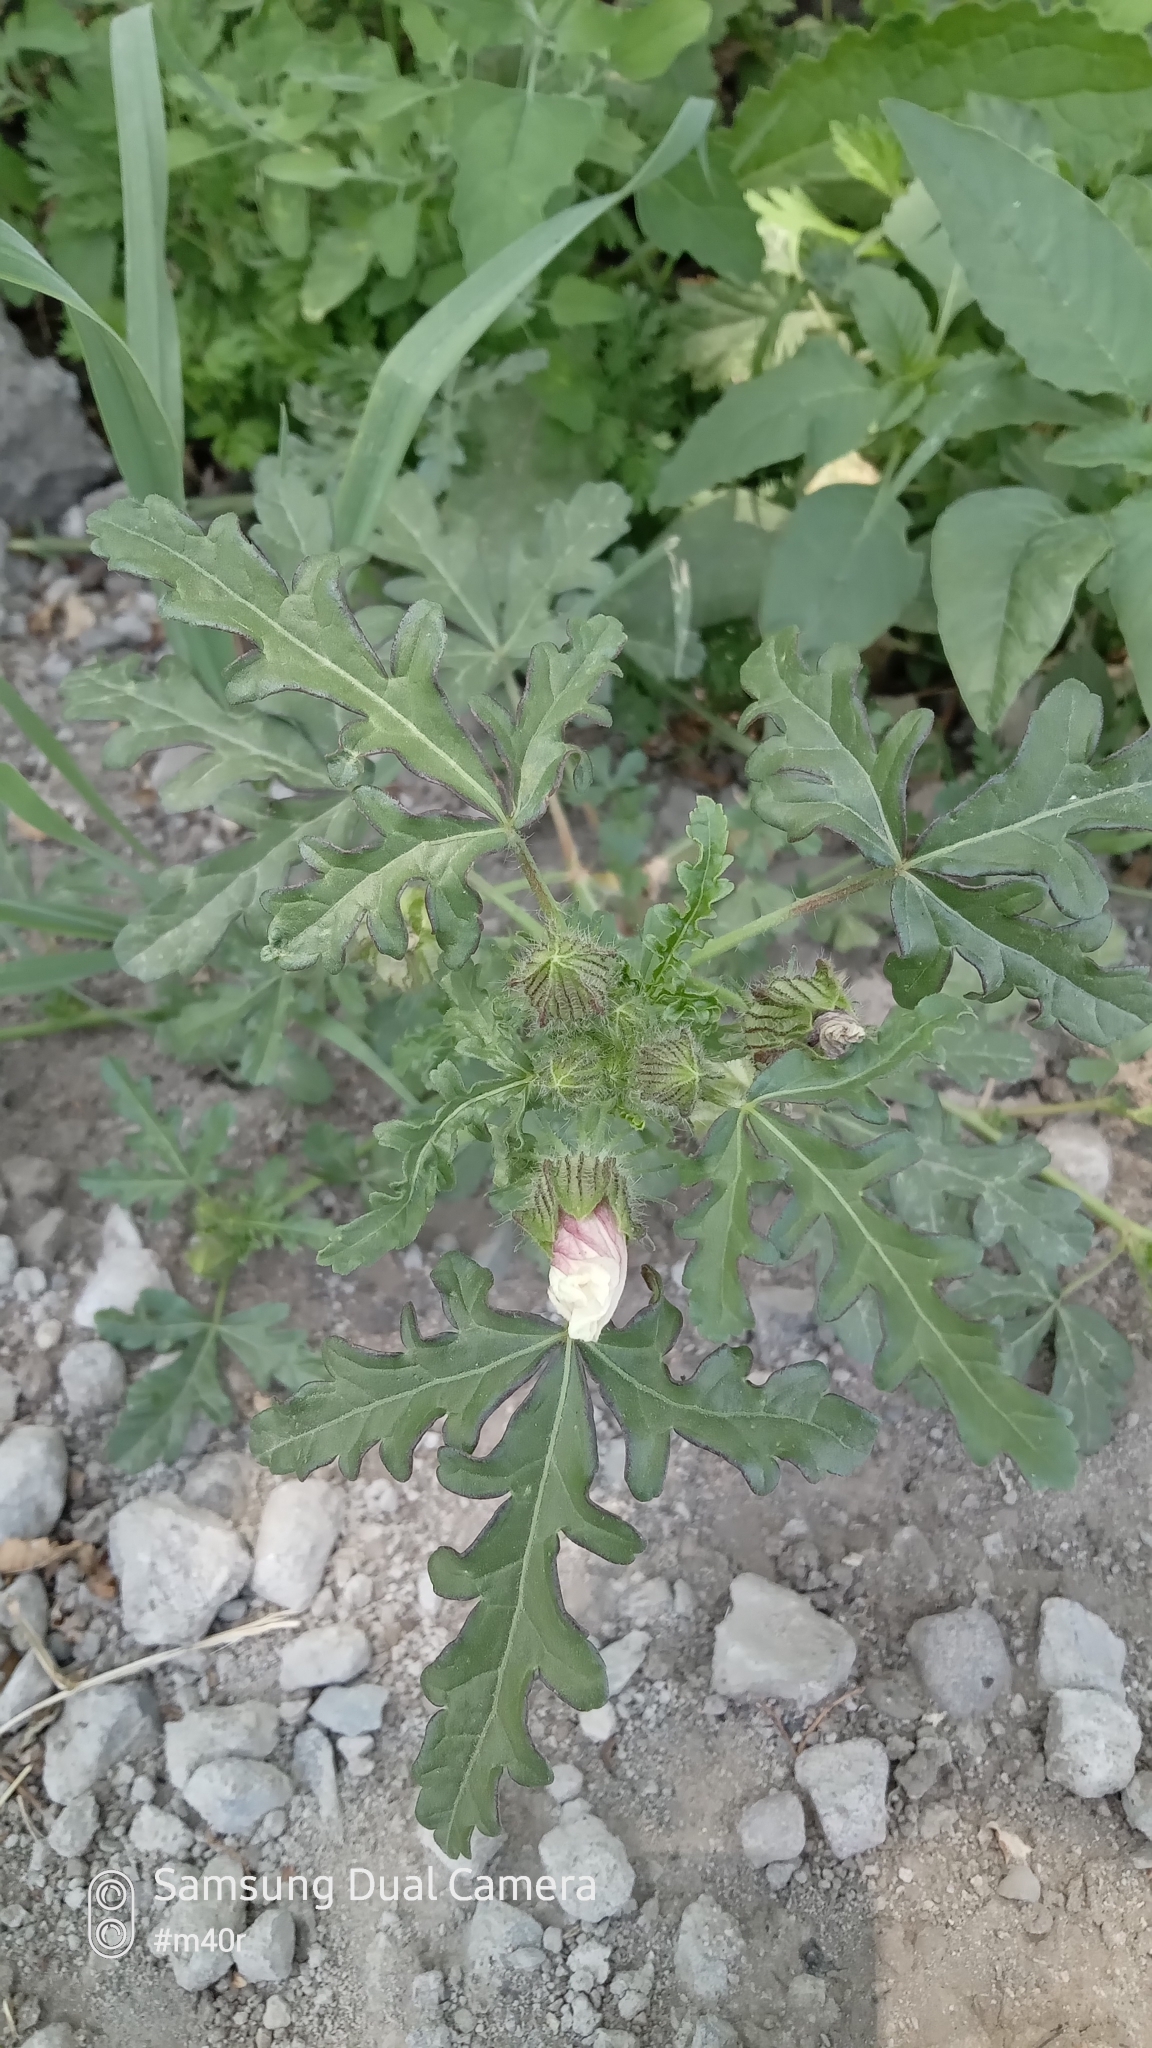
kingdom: Plantae
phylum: Tracheophyta
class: Magnoliopsida
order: Malvales
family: Malvaceae
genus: Hibiscus
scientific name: Hibiscus trionum
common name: Bladder ketmia
